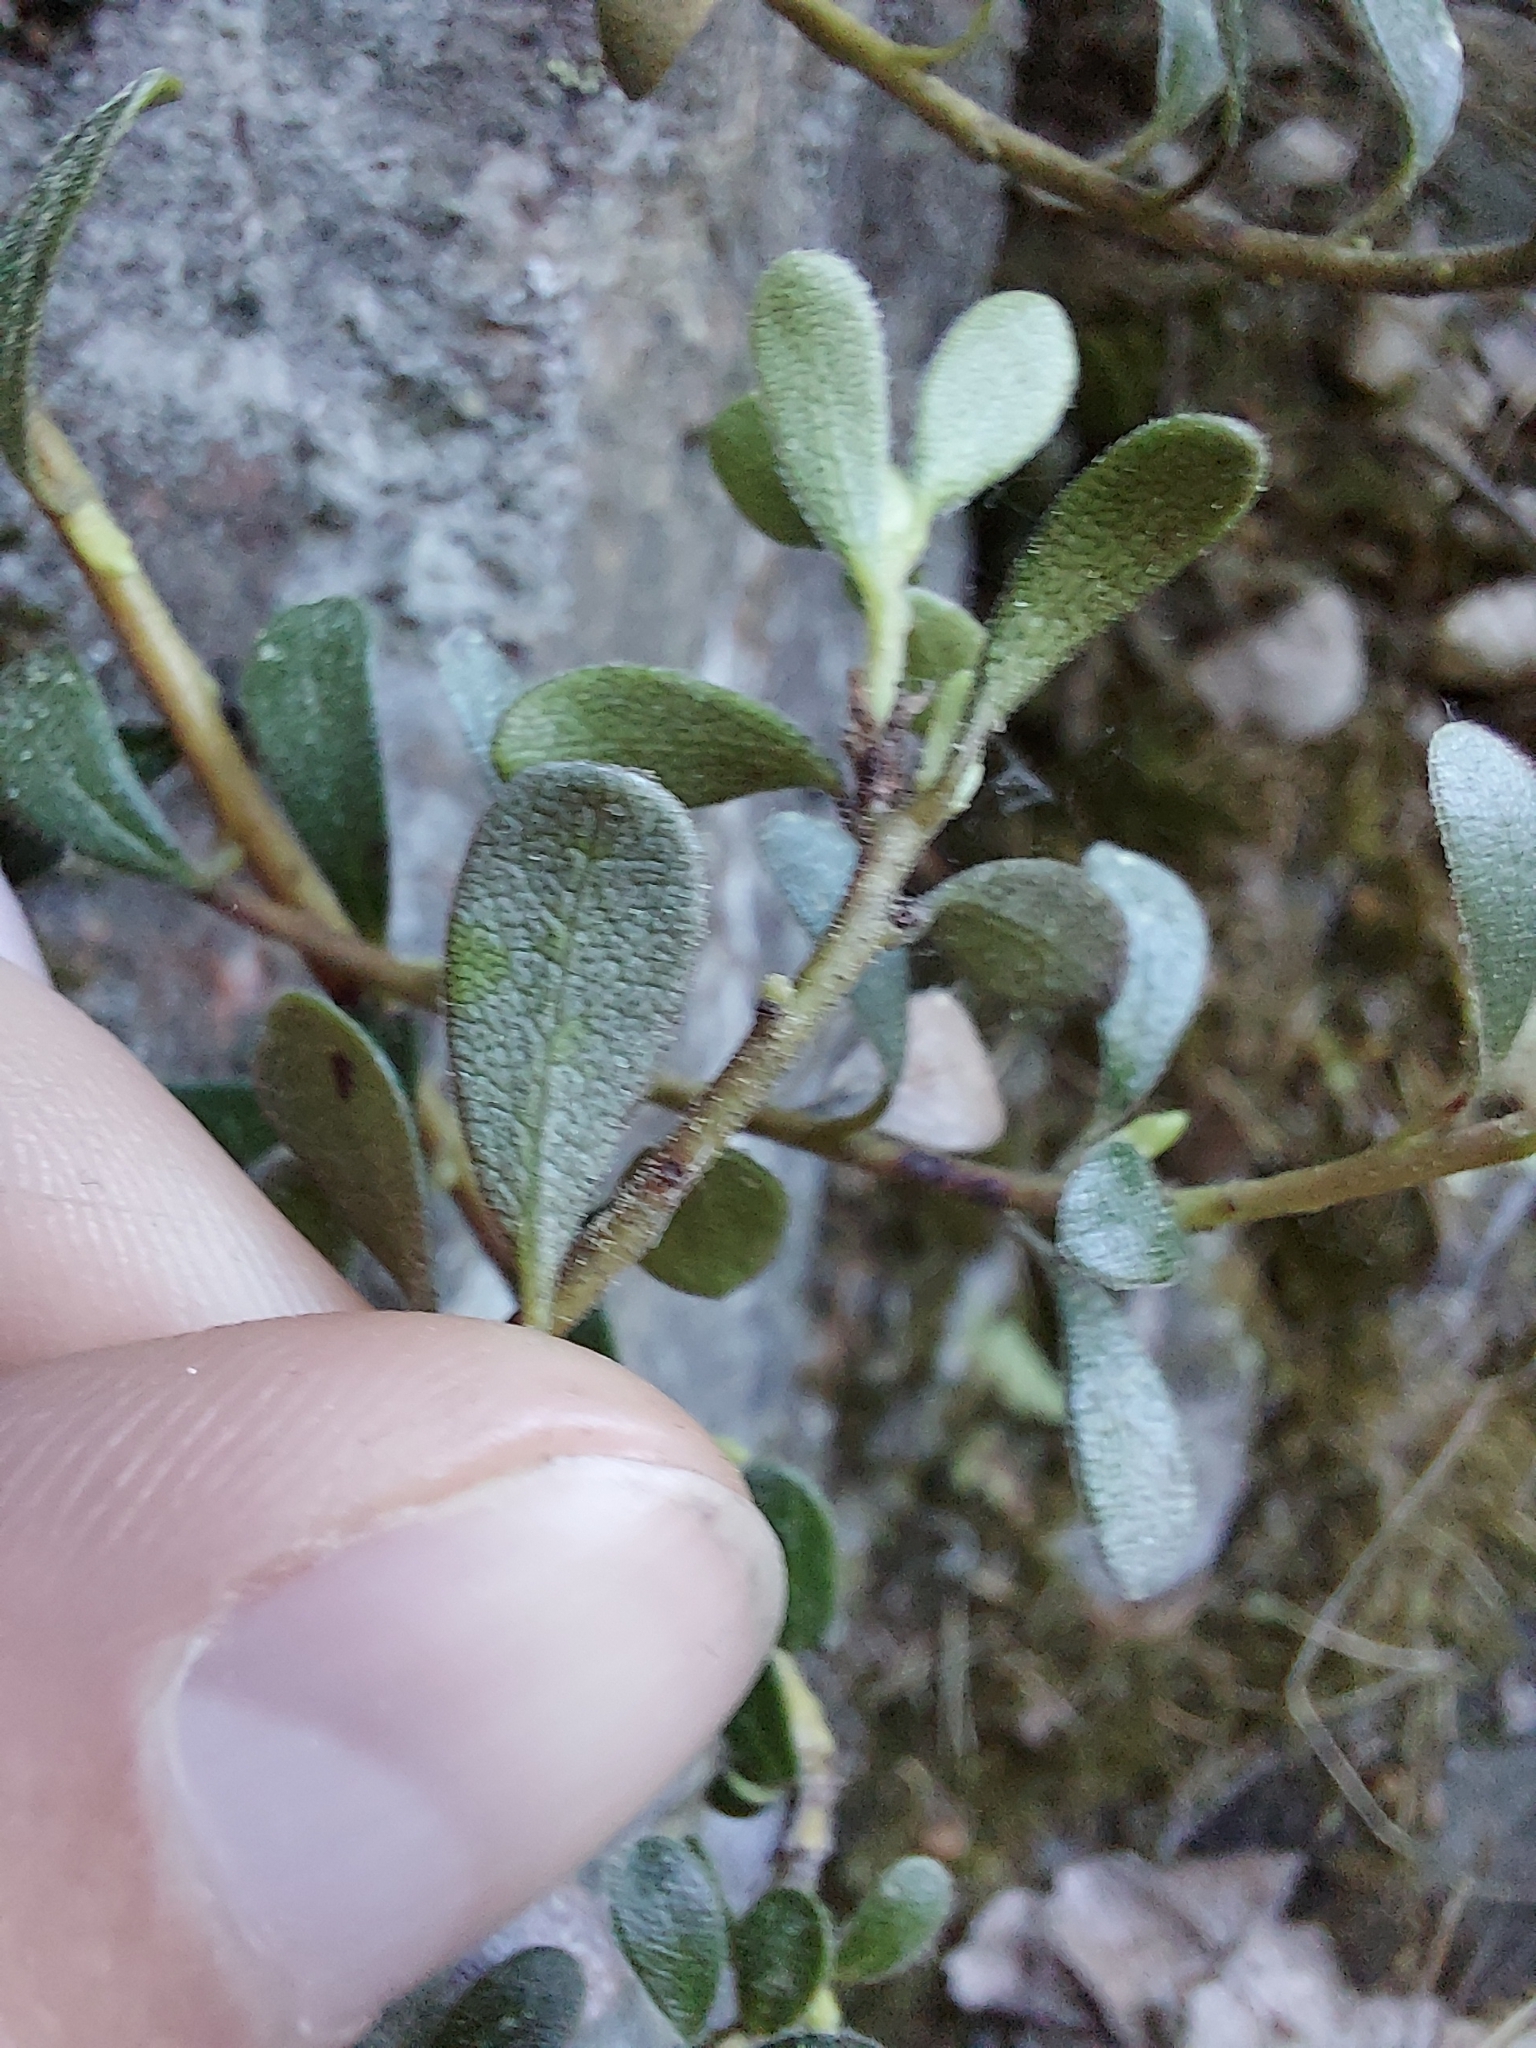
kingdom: Plantae
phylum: Tracheophyta
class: Magnoliopsida
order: Ericales
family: Ericaceae
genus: Arctostaphylos
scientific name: Arctostaphylos uva-ursi
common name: Bearberry
